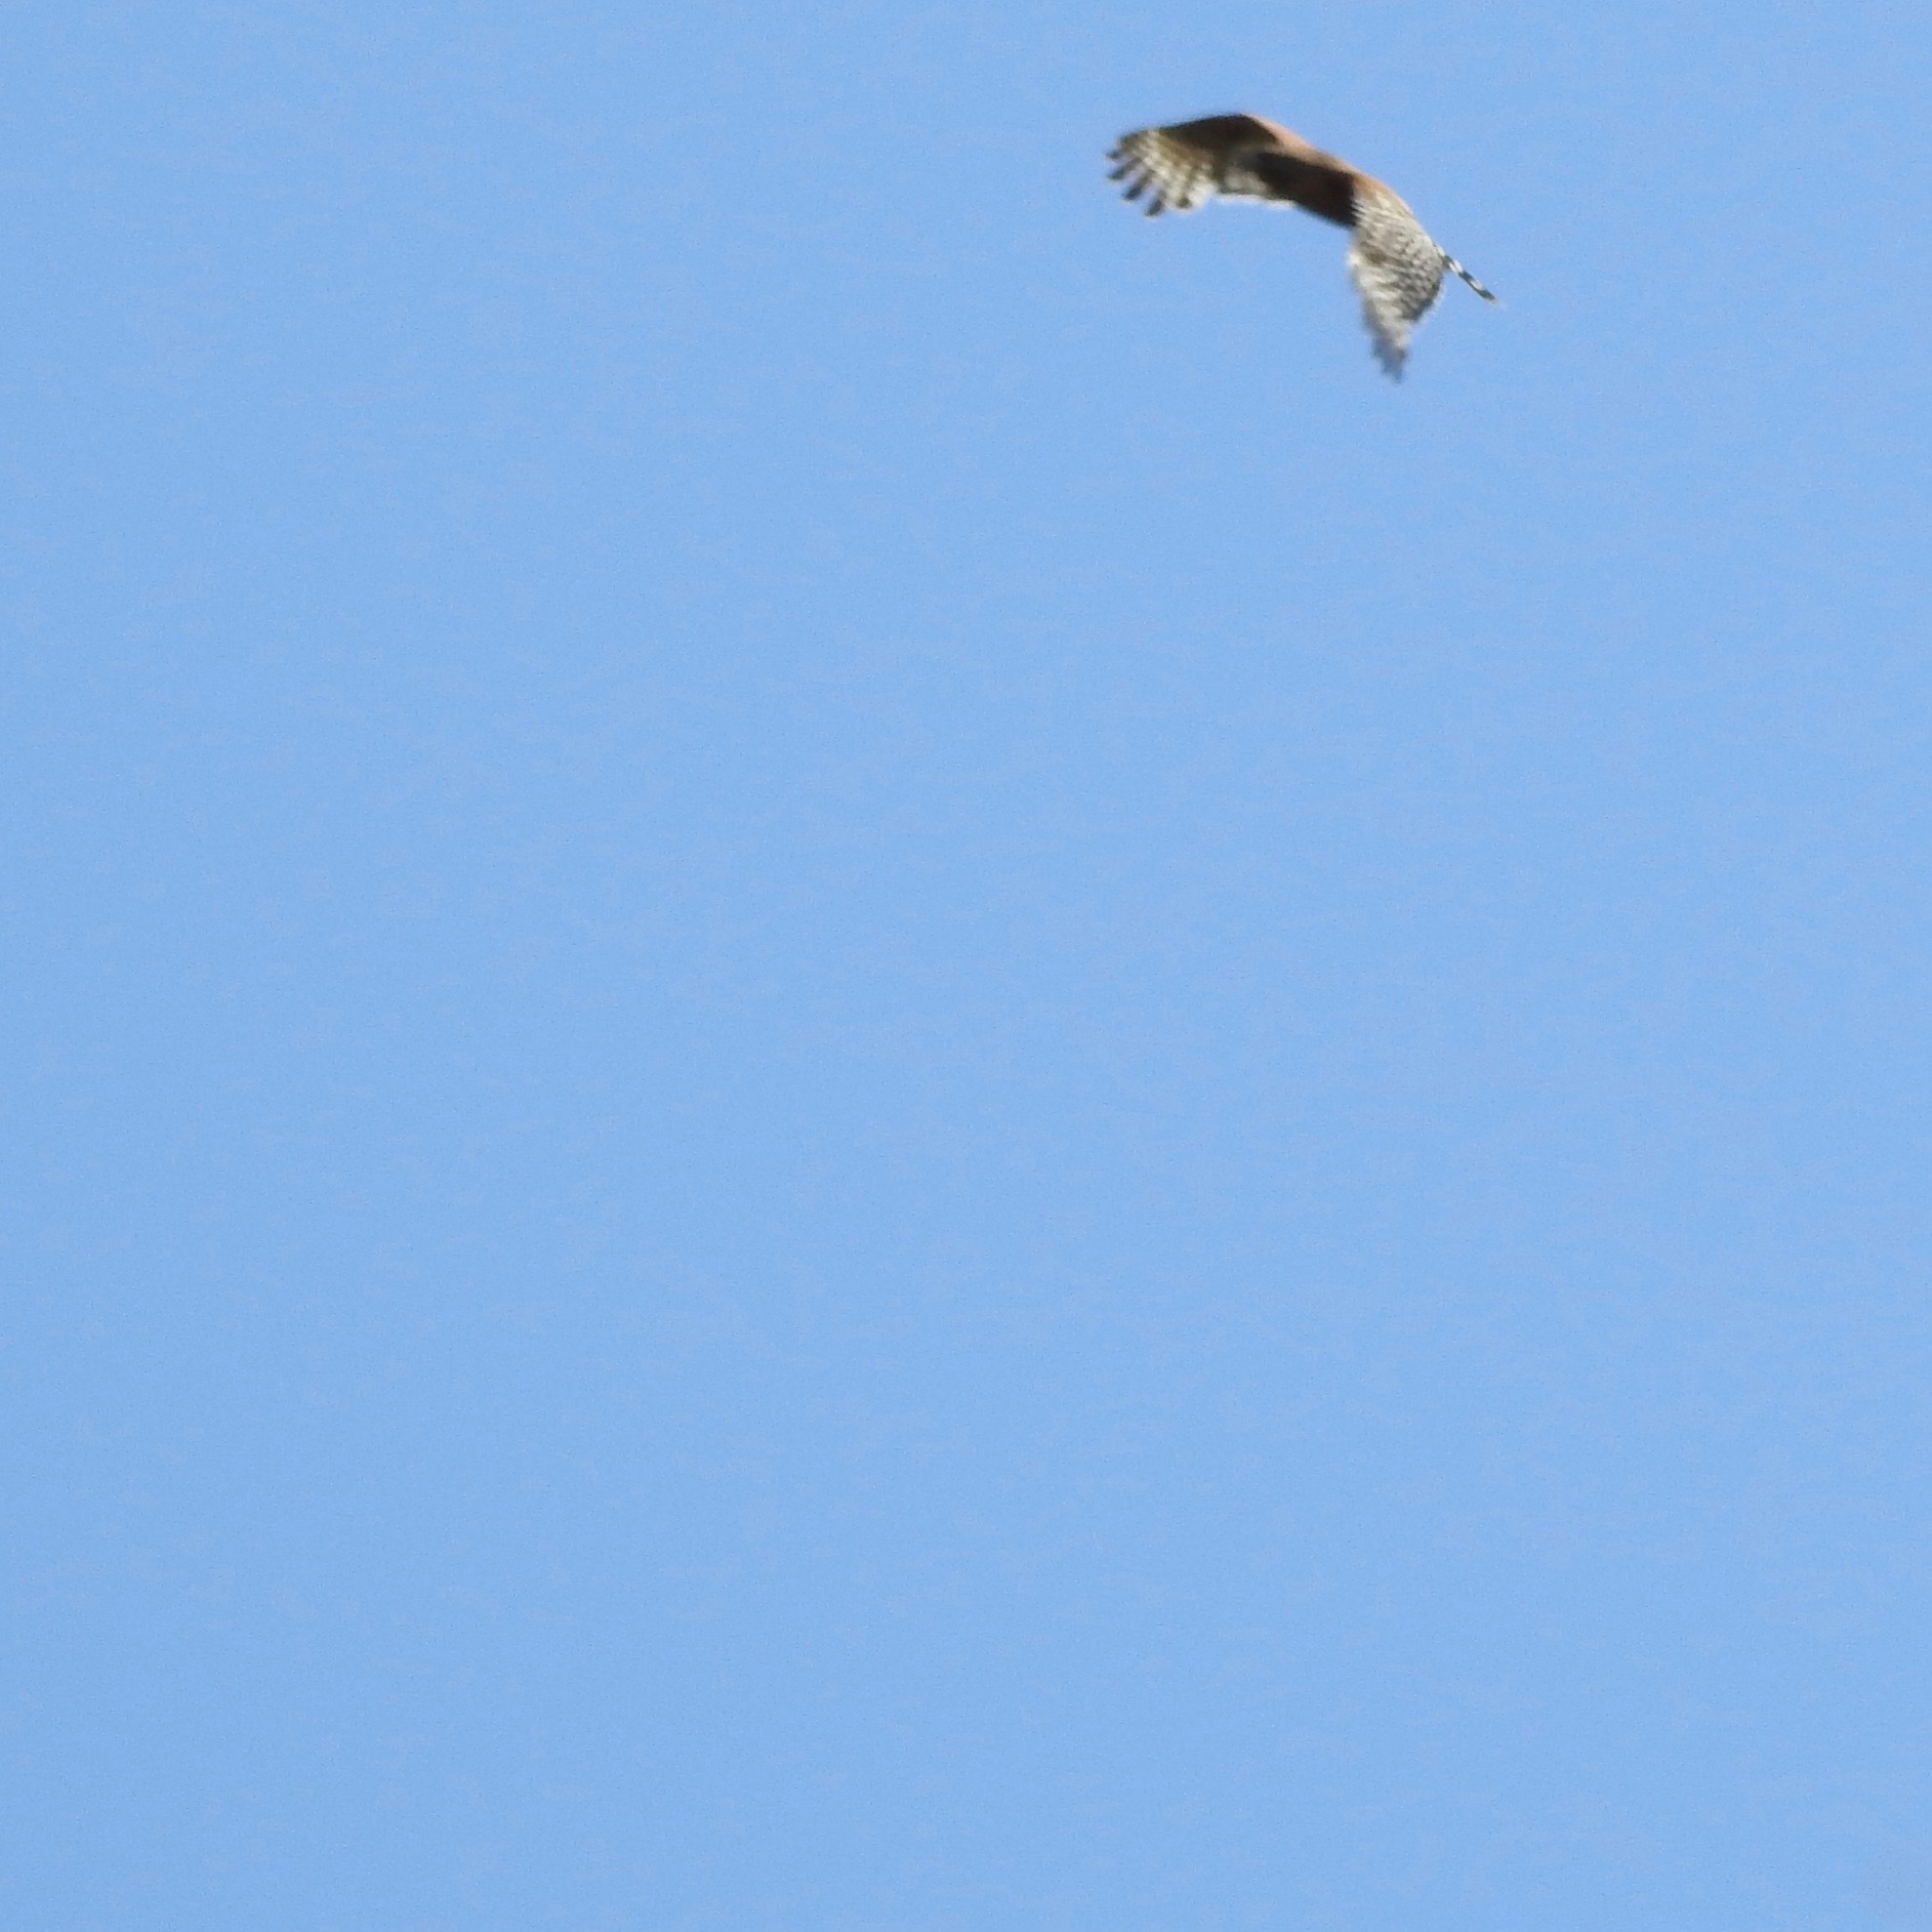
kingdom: Animalia
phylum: Chordata
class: Aves
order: Accipitriformes
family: Accipitridae
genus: Buteo
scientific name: Buteo lineatus
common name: Red-shouldered hawk
